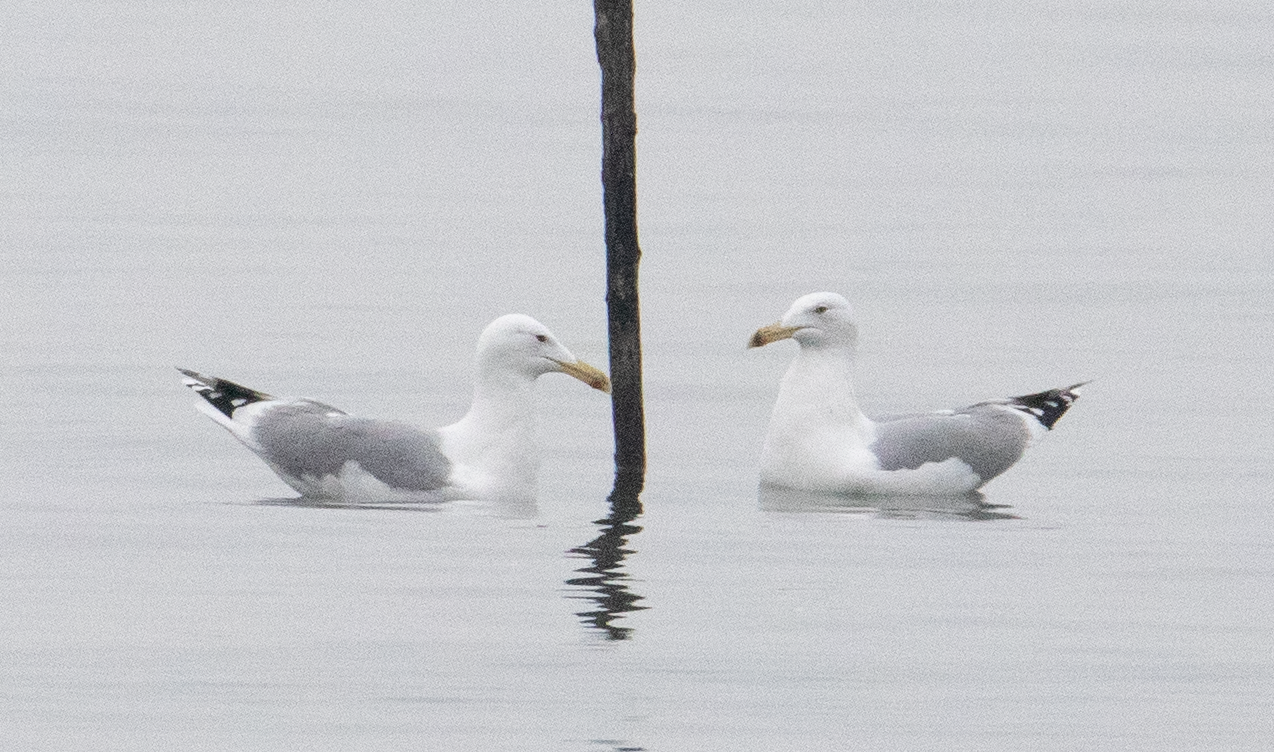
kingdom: Animalia
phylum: Chordata
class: Aves
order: Charadriiformes
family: Laridae
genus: Larus
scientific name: Larus cachinnans
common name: Caspian gull
